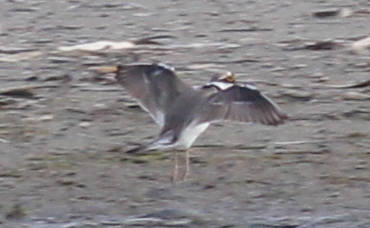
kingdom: Animalia
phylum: Chordata
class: Aves
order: Charadriiformes
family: Charadriidae
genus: Charadrius
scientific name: Charadrius dubius
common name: Little ringed plover
